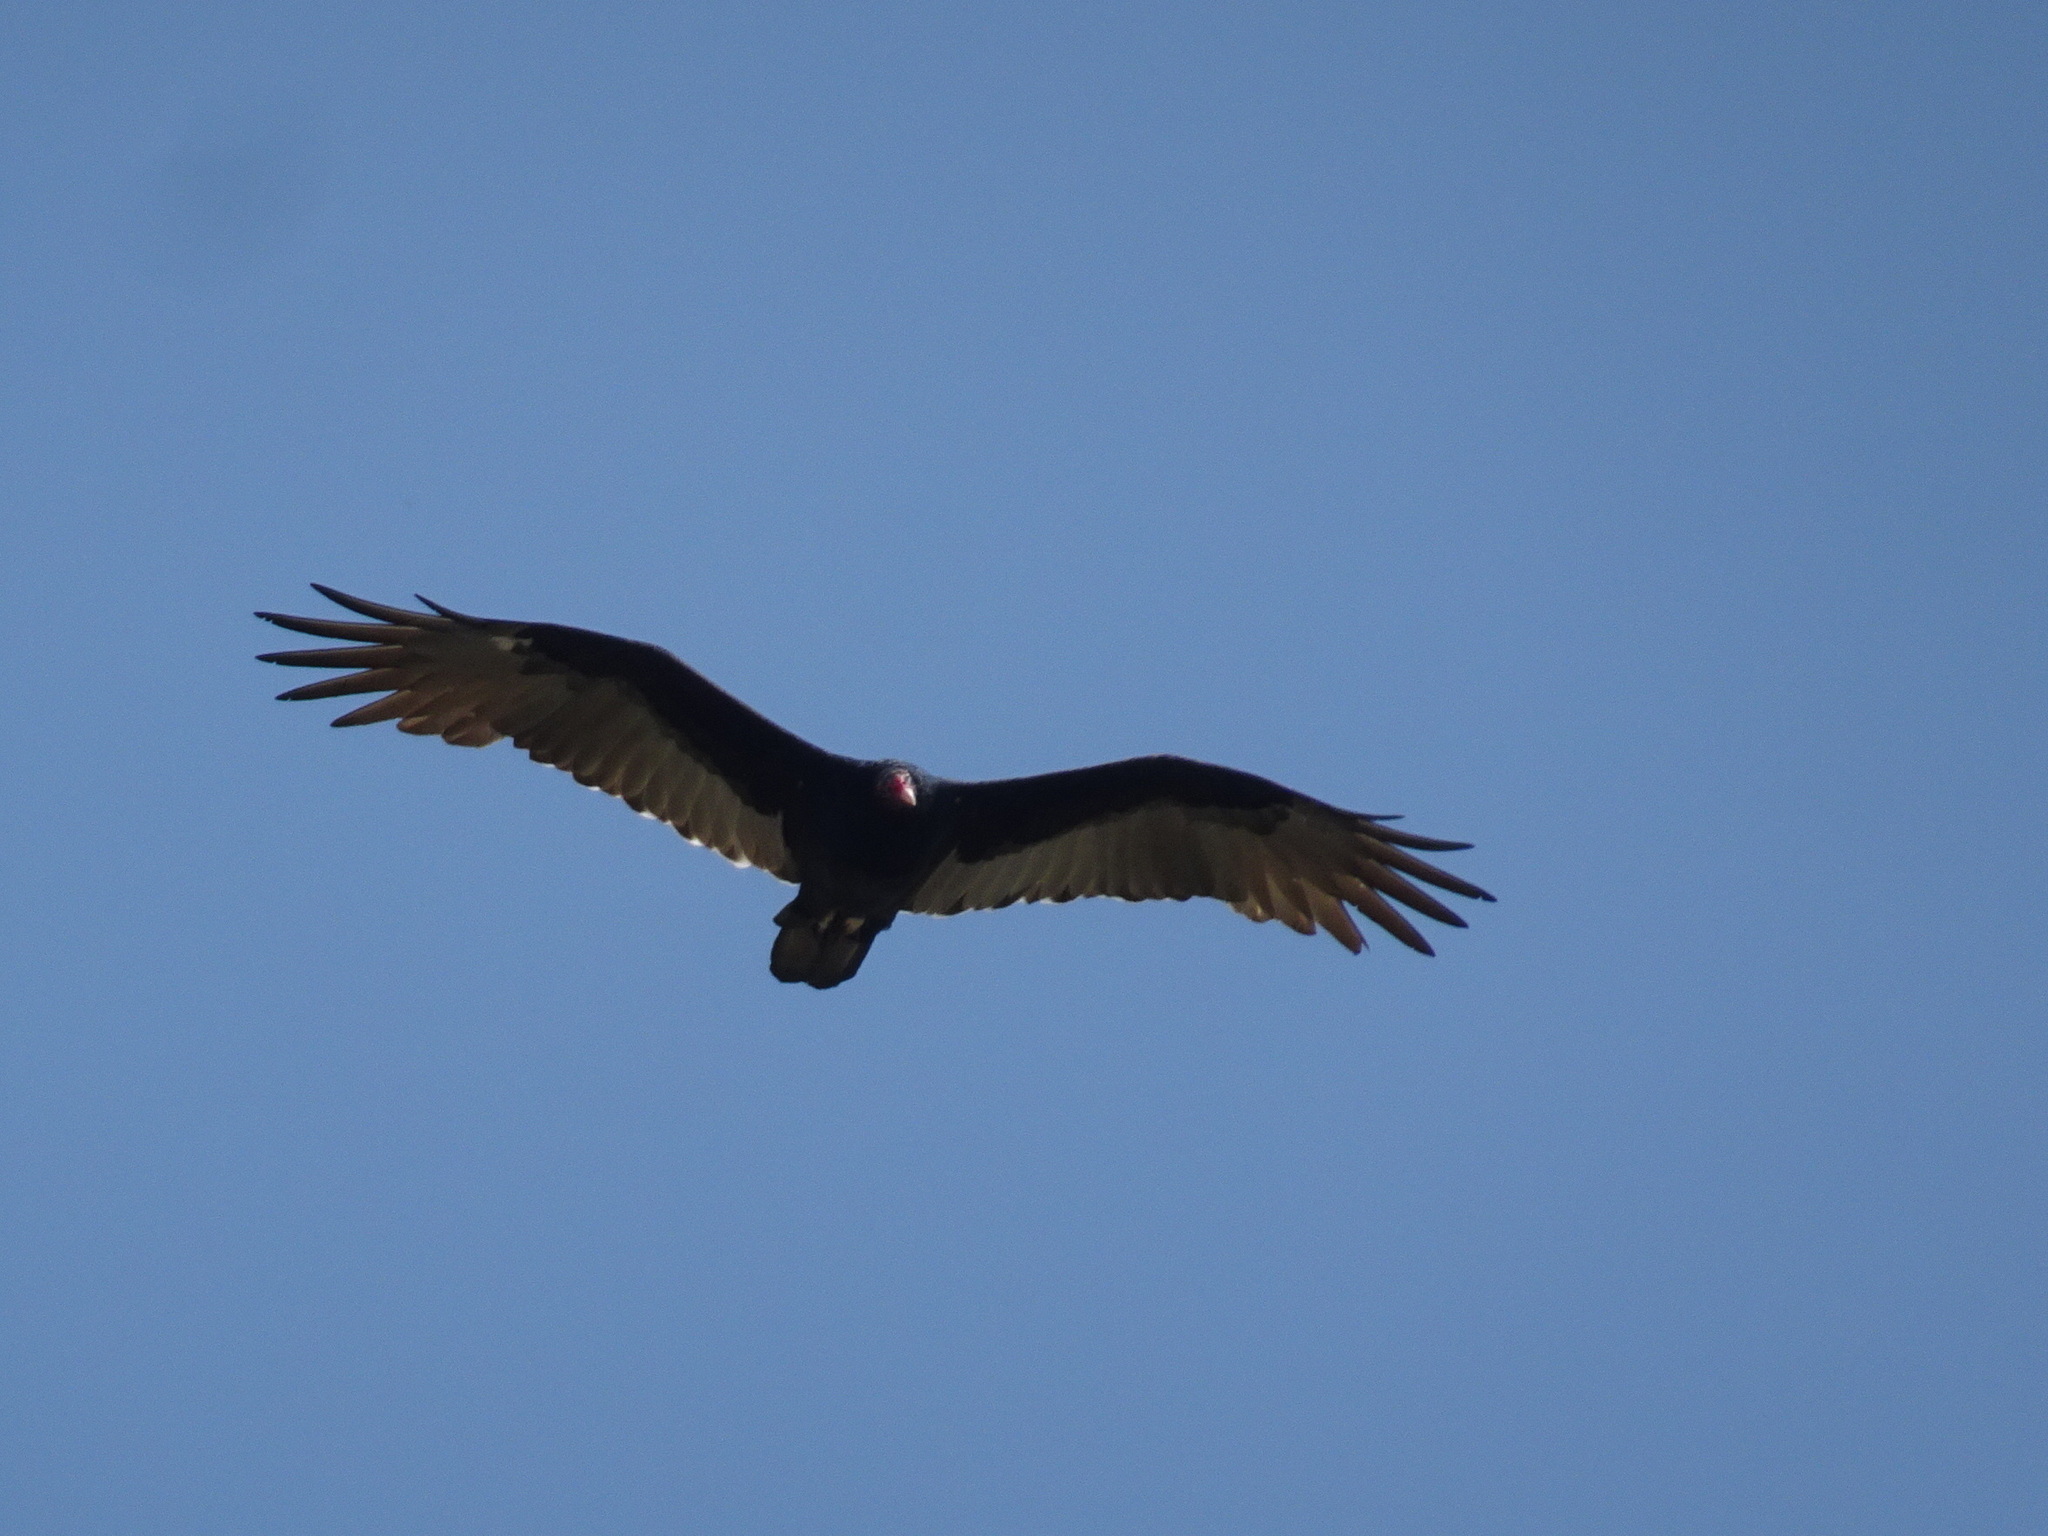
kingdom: Animalia
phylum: Chordata
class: Aves
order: Accipitriformes
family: Cathartidae
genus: Cathartes
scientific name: Cathartes aura
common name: Turkey vulture
